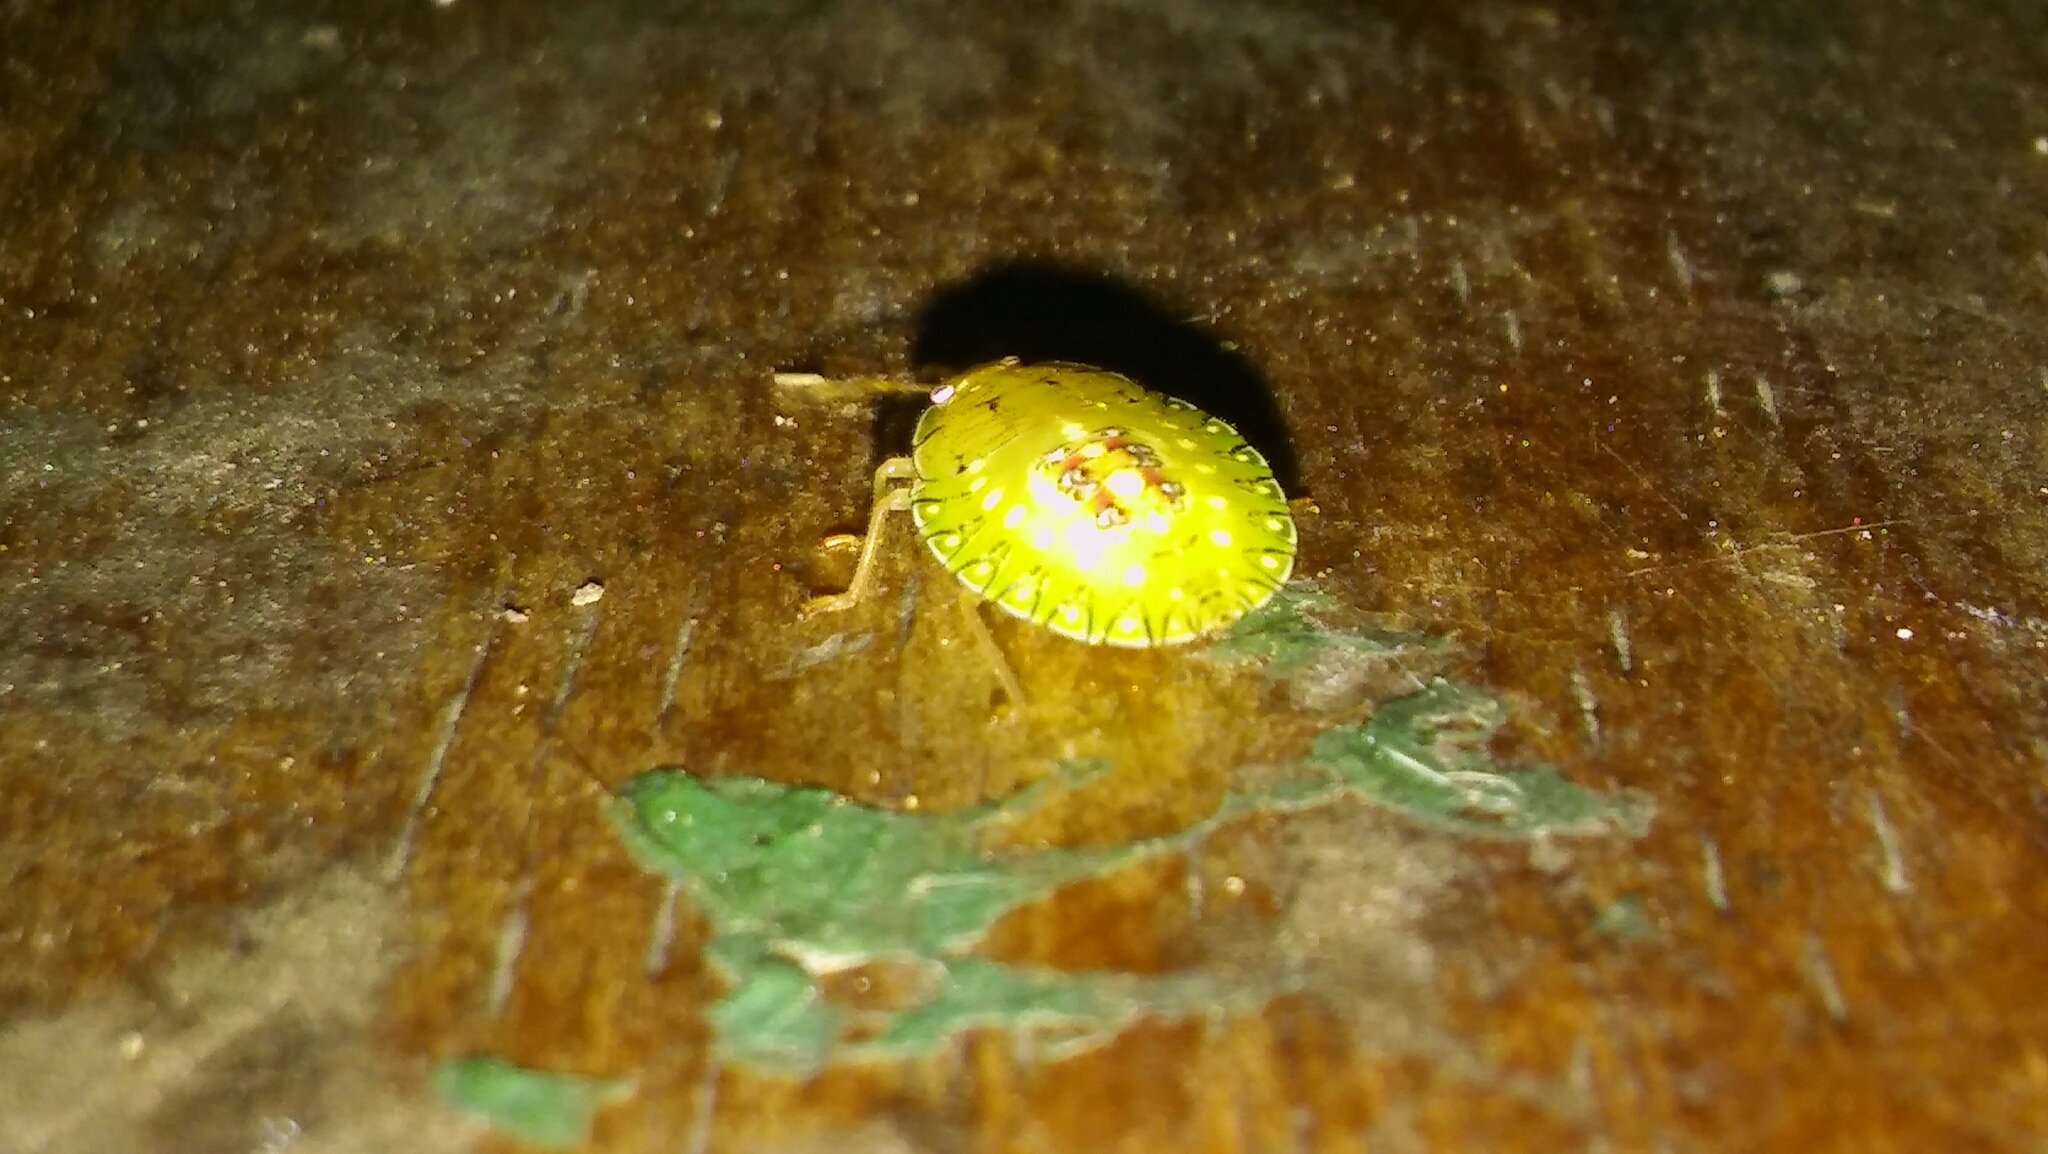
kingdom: Animalia
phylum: Arthropoda
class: Insecta
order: Hemiptera
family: Pentatomidae
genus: Edessa
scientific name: Edessa meditabunda
